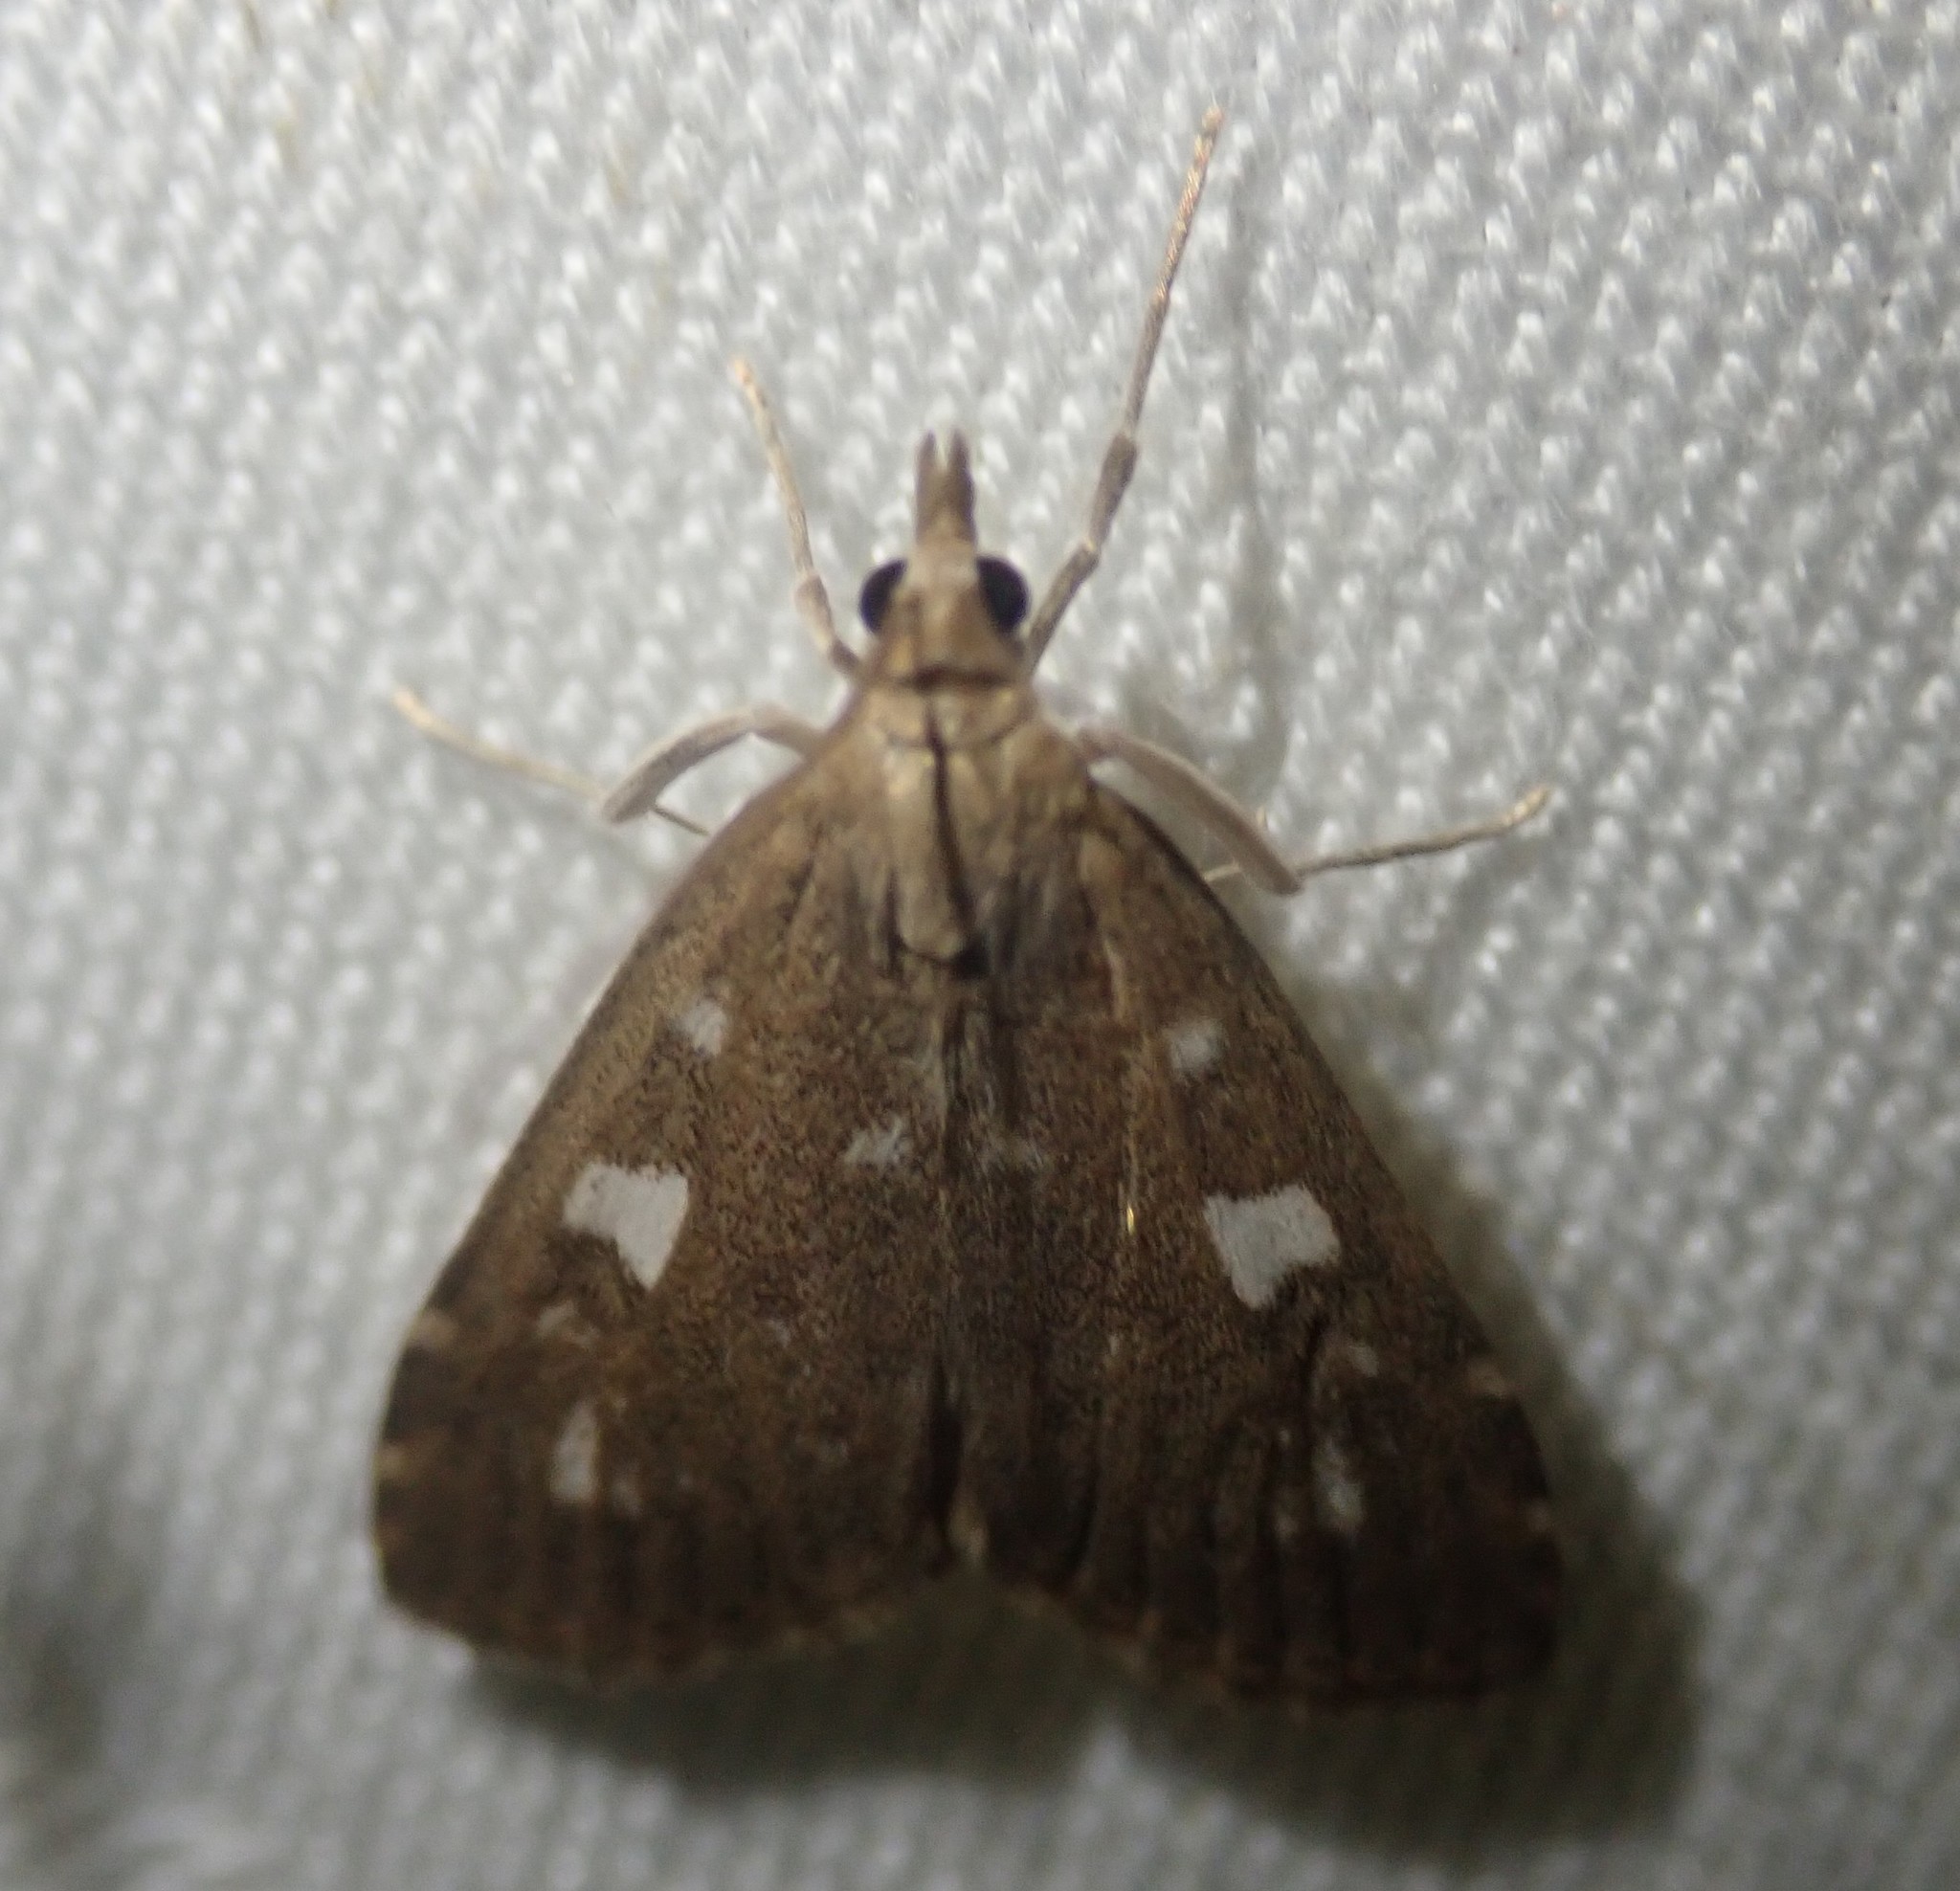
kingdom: Animalia
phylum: Arthropoda
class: Insecta
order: Lepidoptera
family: Crambidae
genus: Udea
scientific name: Udea olivalis
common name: Olive pearl
